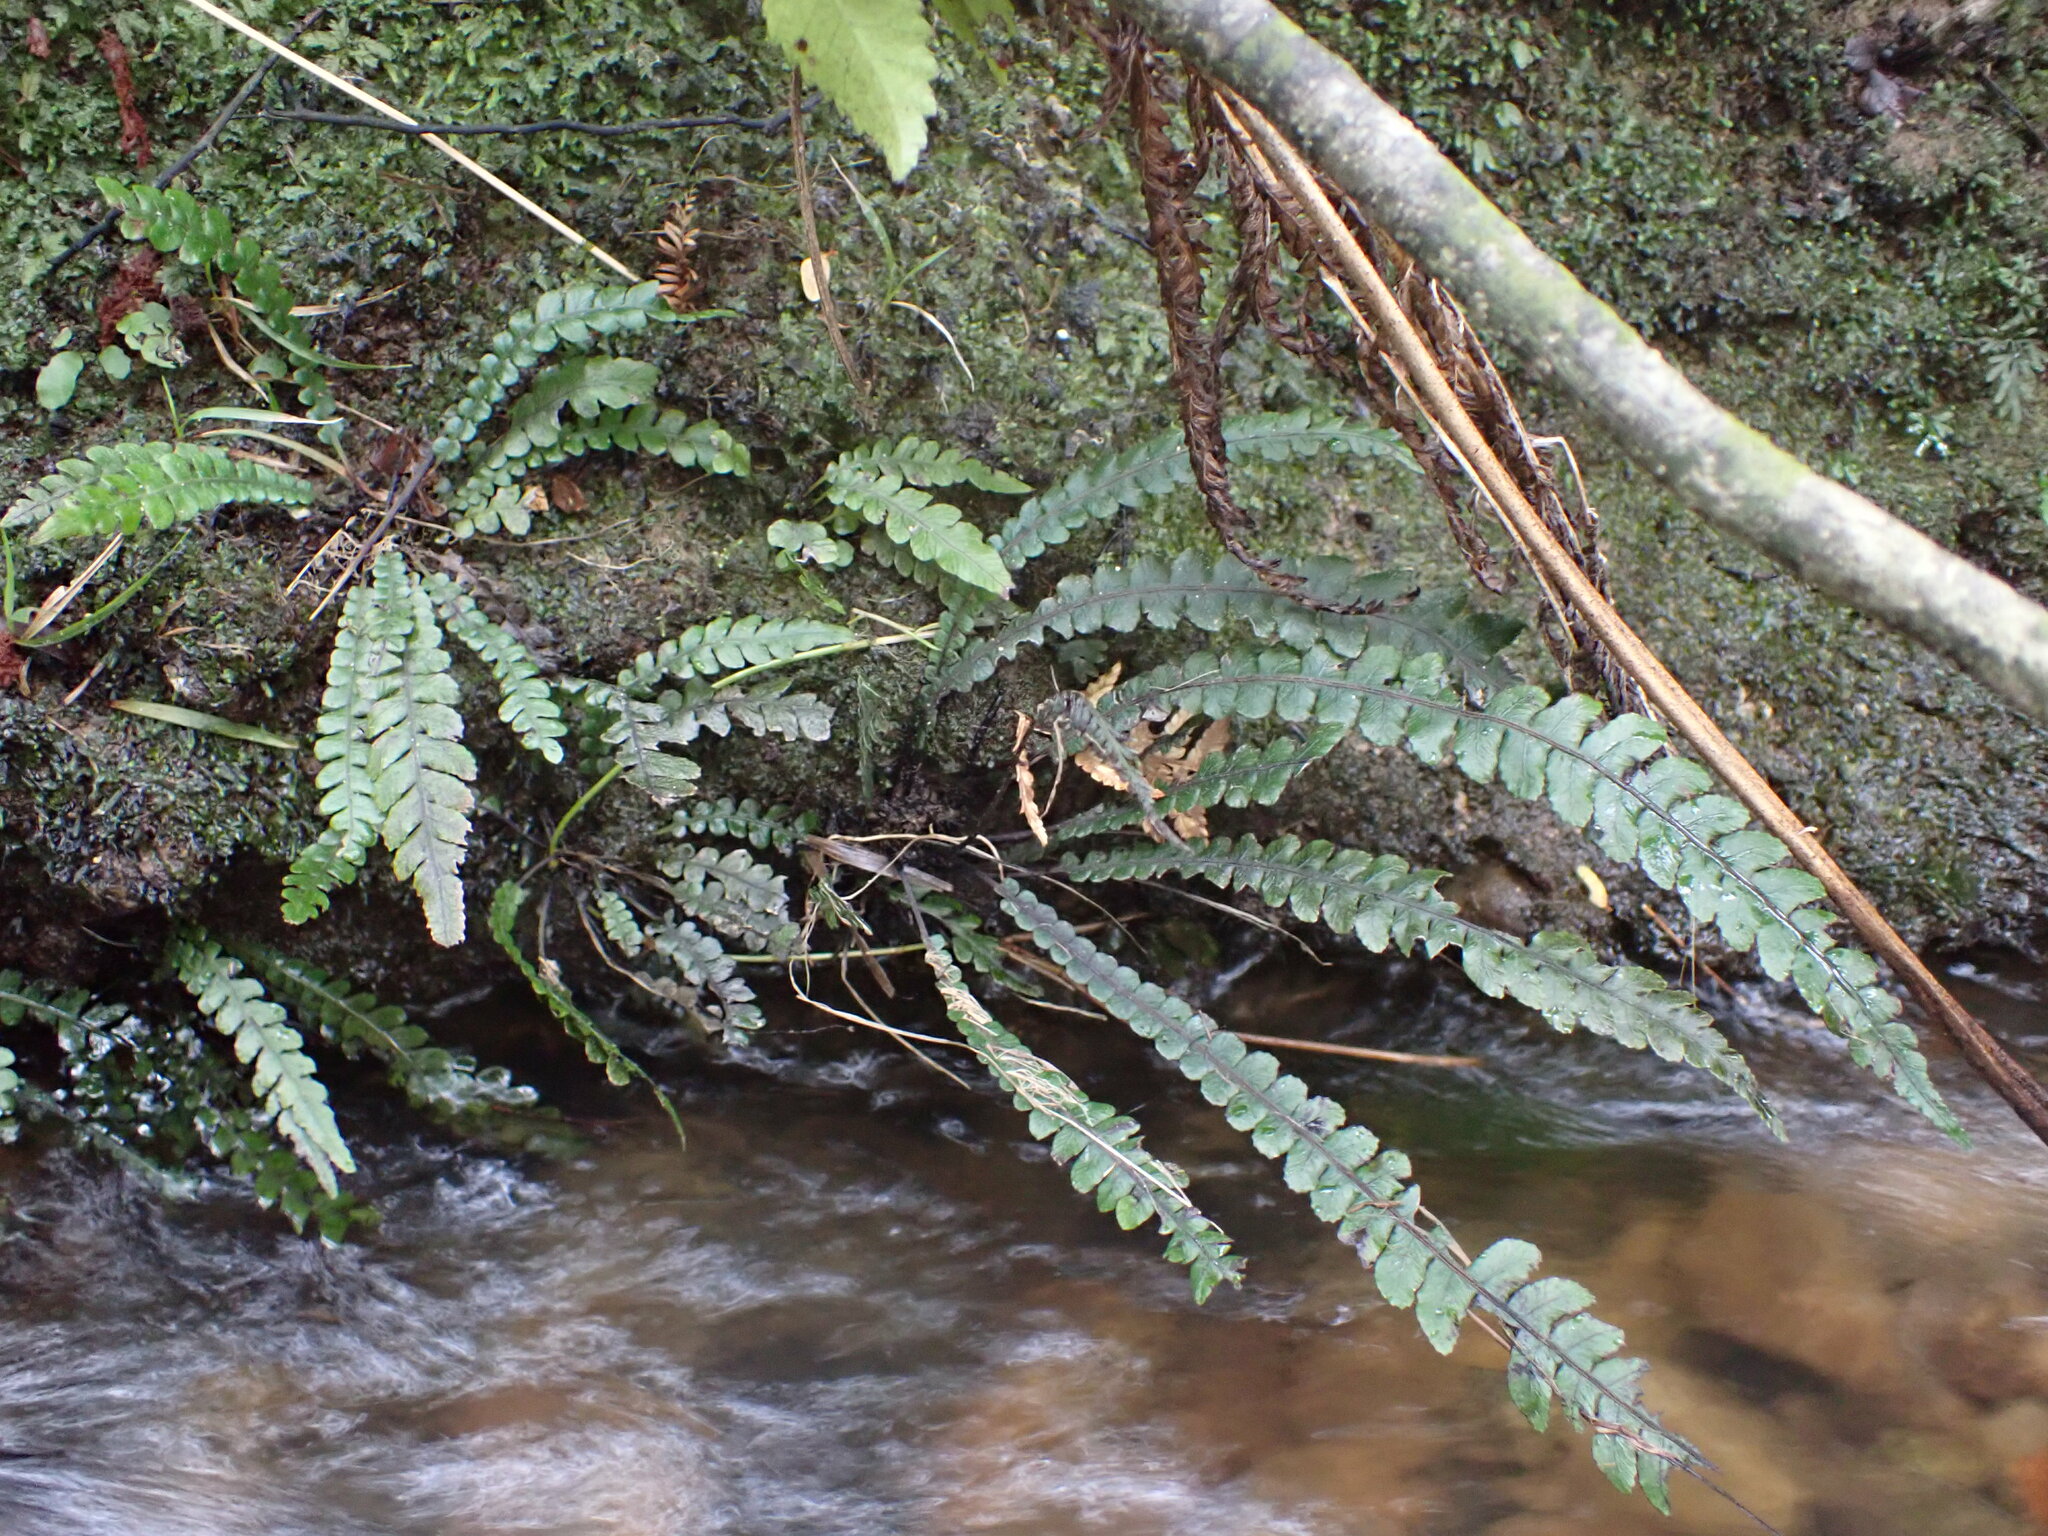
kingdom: Plantae
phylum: Tracheophyta
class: Polypodiopsida
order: Polypodiales
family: Blechnaceae
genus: Austroblechnum
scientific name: Austroblechnum membranaceum
